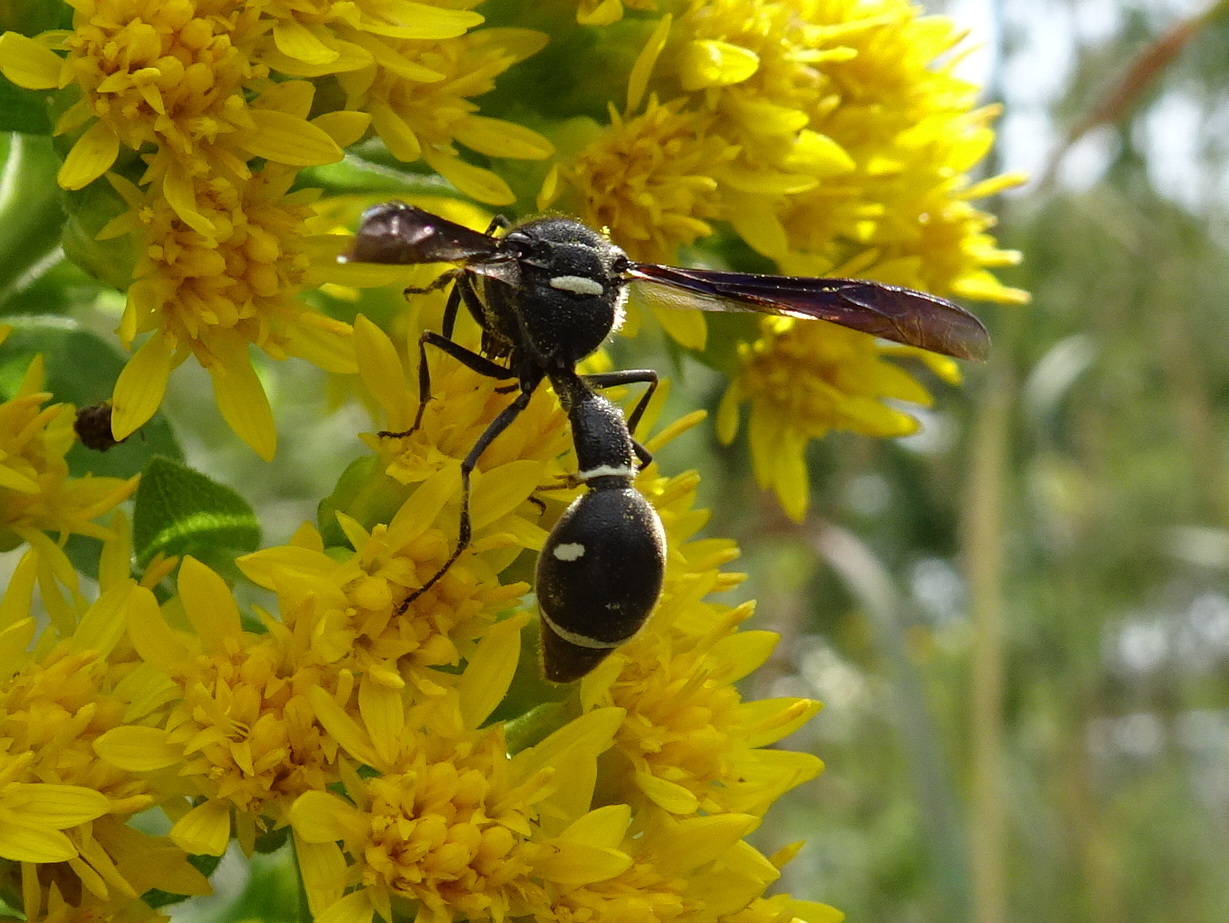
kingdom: Animalia
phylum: Arthropoda
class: Insecta
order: Hymenoptera
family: Vespidae
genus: Eumenes
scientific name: Eumenes fraternus
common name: Fraternal potter wasp
